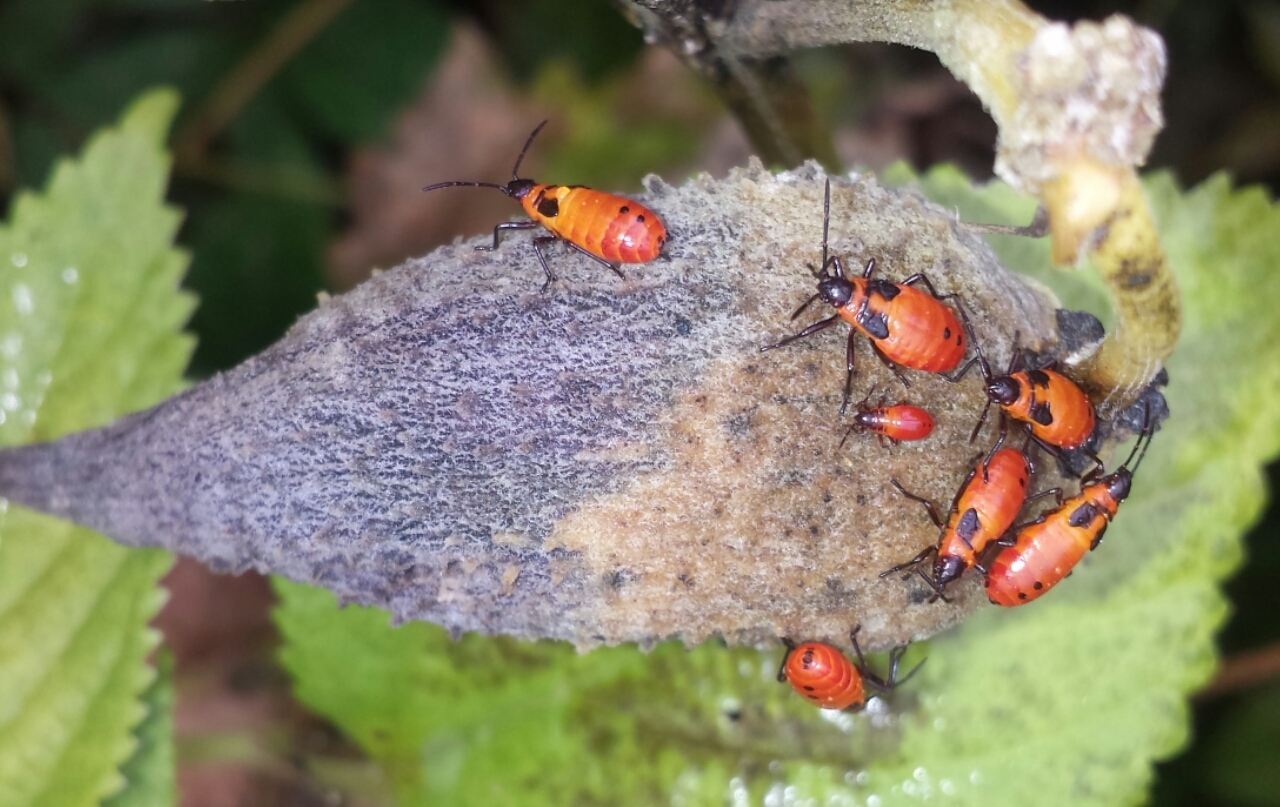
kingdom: Animalia
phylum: Arthropoda
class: Insecta
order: Hemiptera
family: Lygaeidae
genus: Oncopeltus
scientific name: Oncopeltus fasciatus
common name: Large milkweed bug
